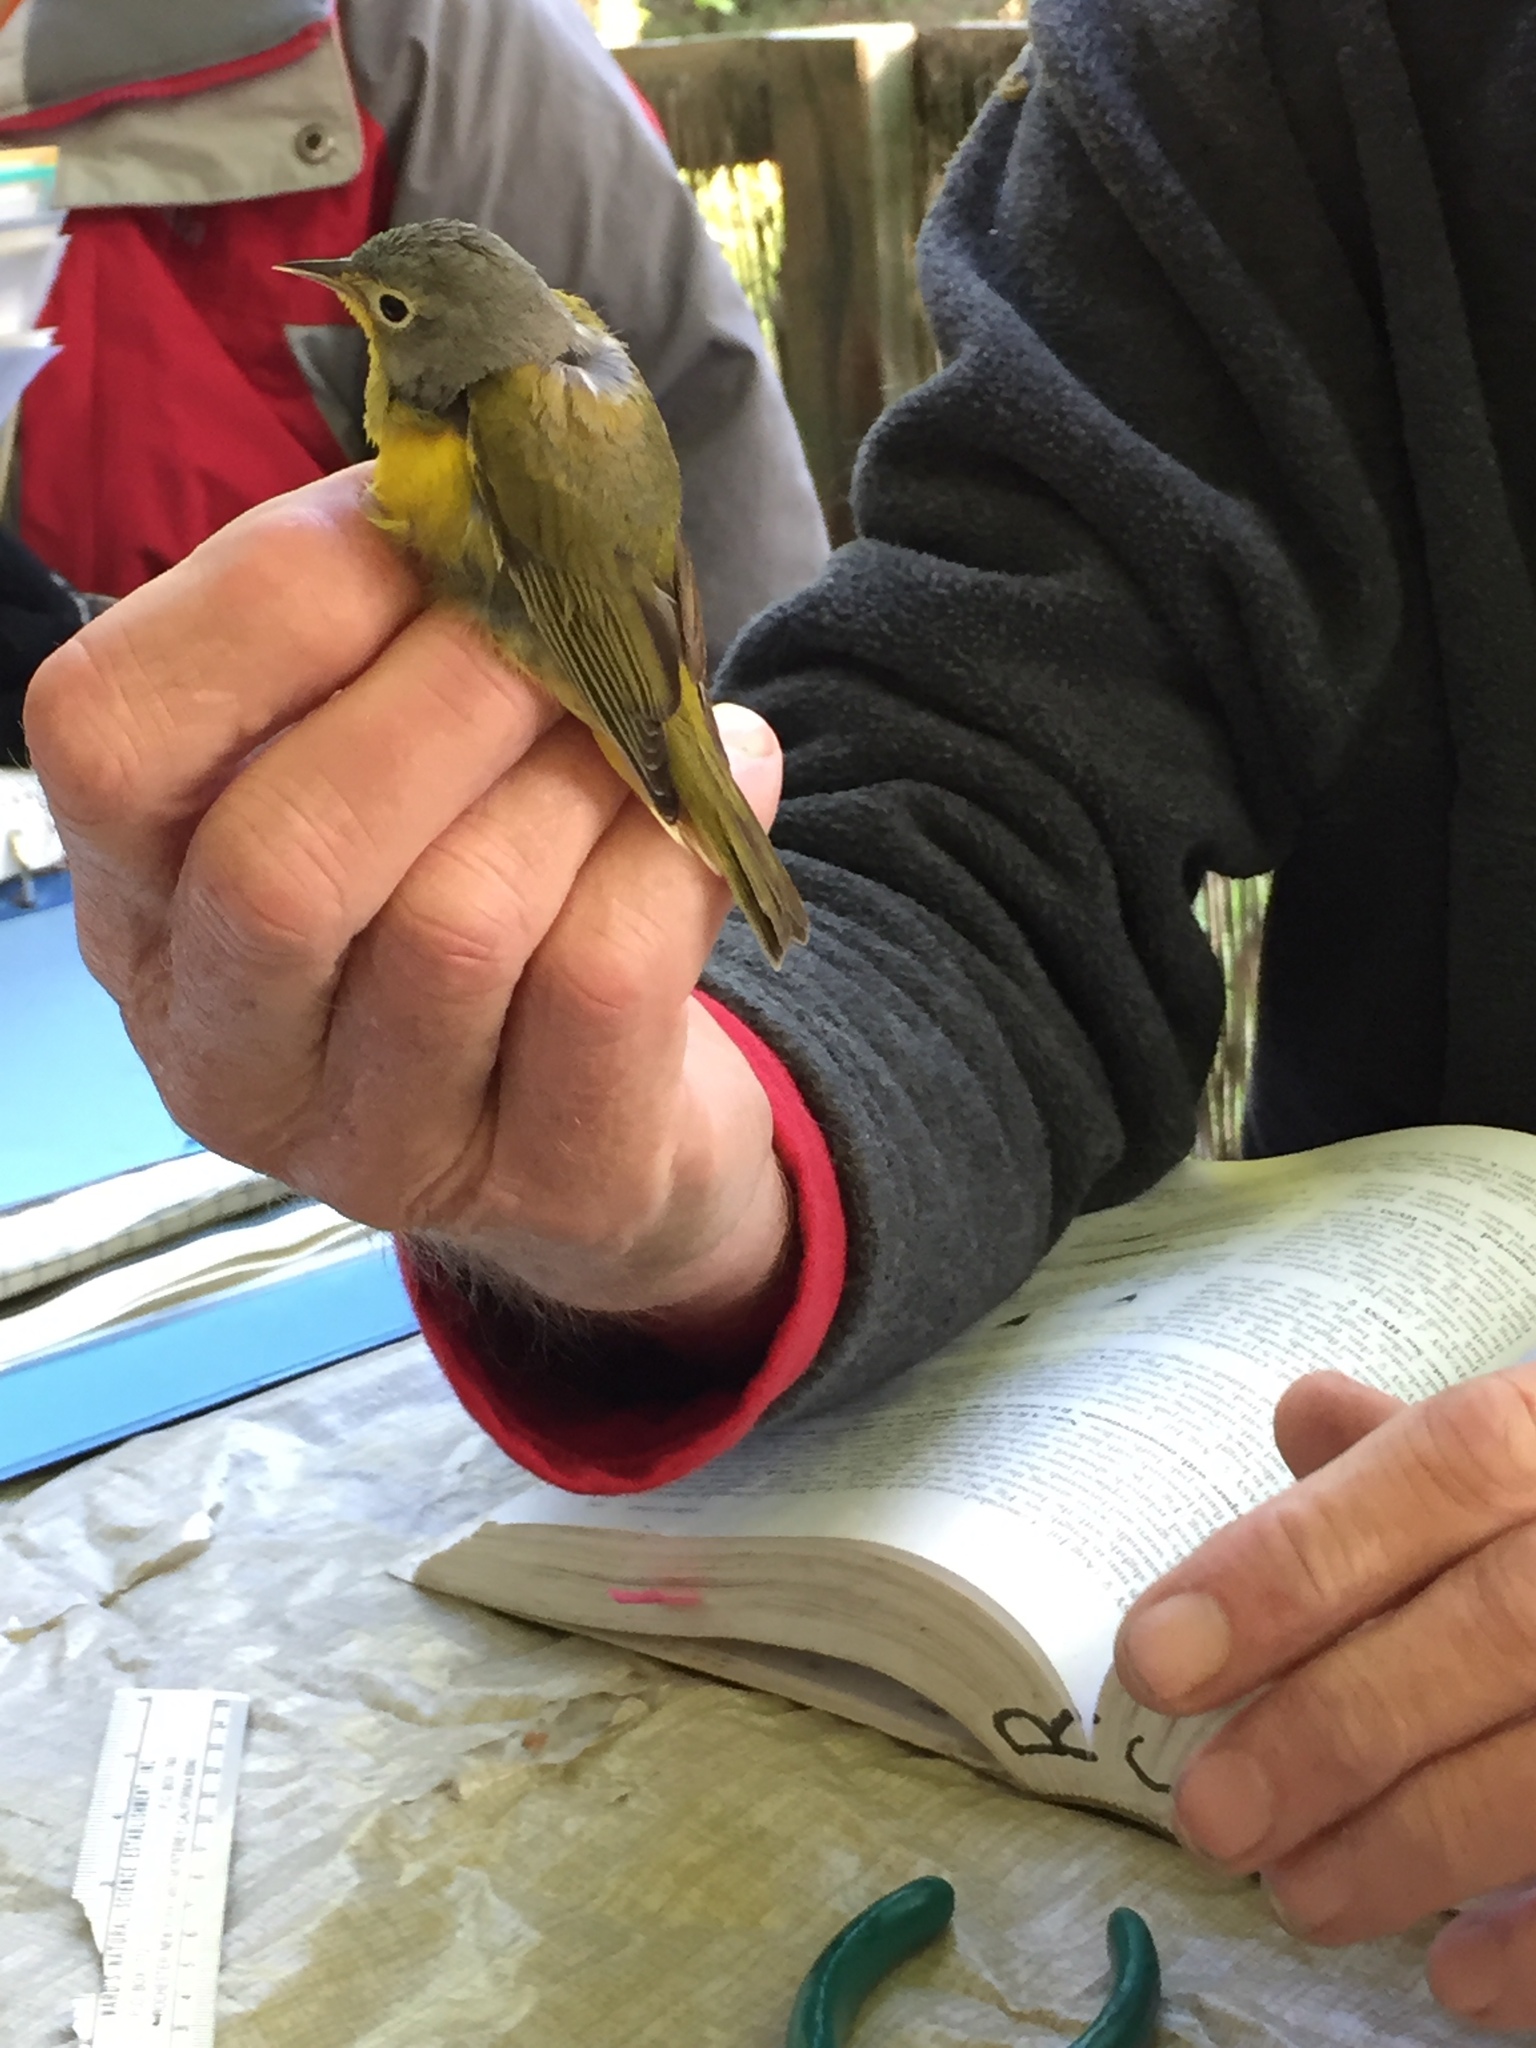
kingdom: Animalia
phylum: Chordata
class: Aves
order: Passeriformes
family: Parulidae
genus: Leiothlypis
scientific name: Leiothlypis ruficapilla
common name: Nashville warbler
